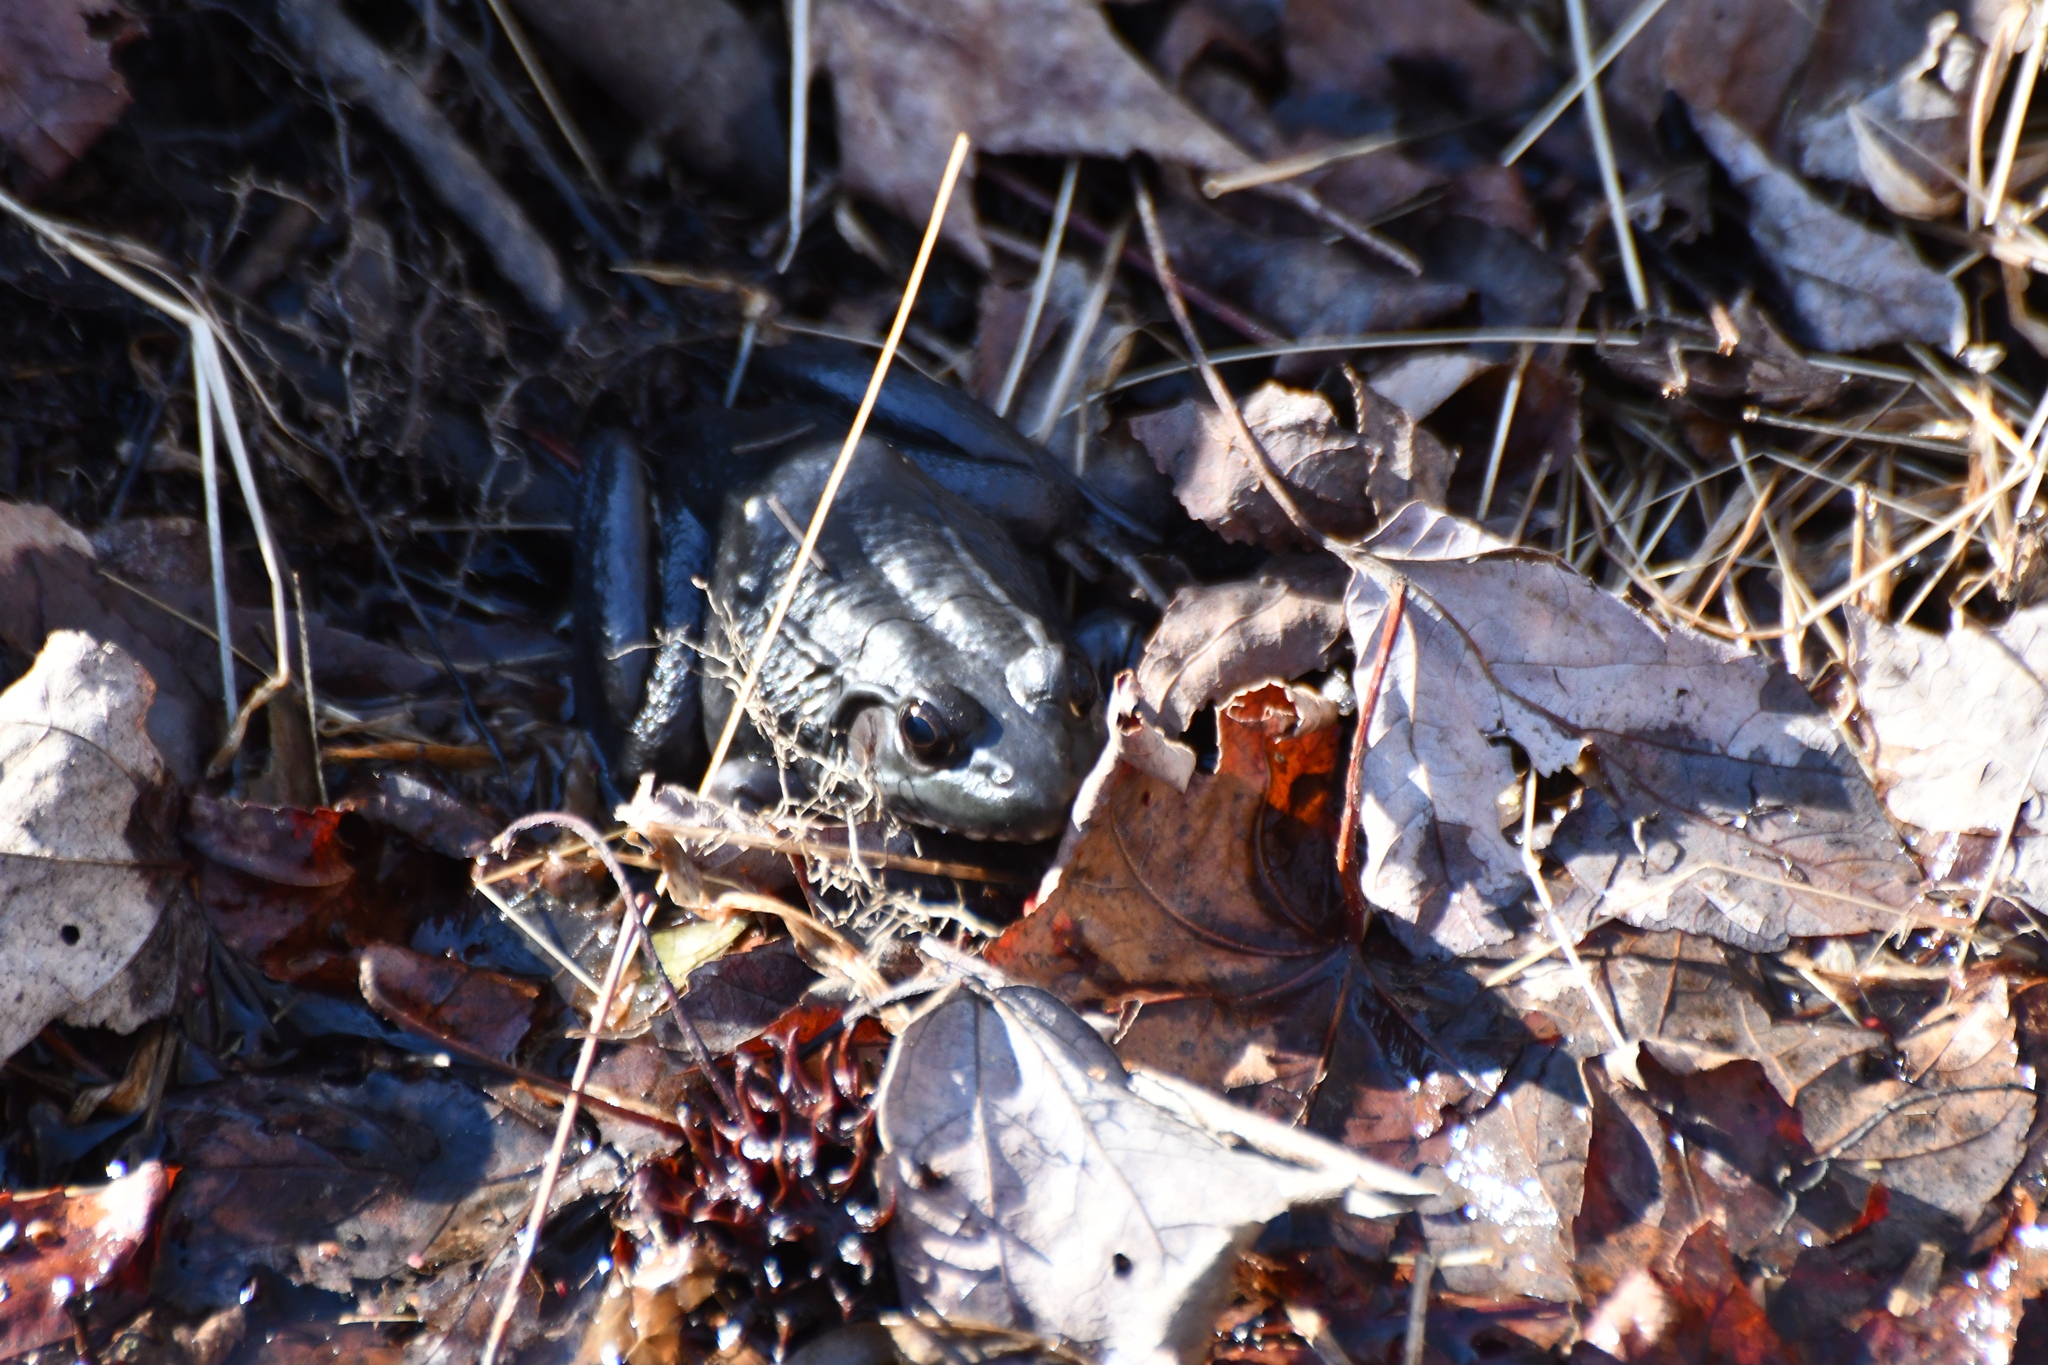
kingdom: Animalia
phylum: Chordata
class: Amphibia
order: Anura
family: Ranidae
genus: Lithobates
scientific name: Lithobates clamitans
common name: Green frog
